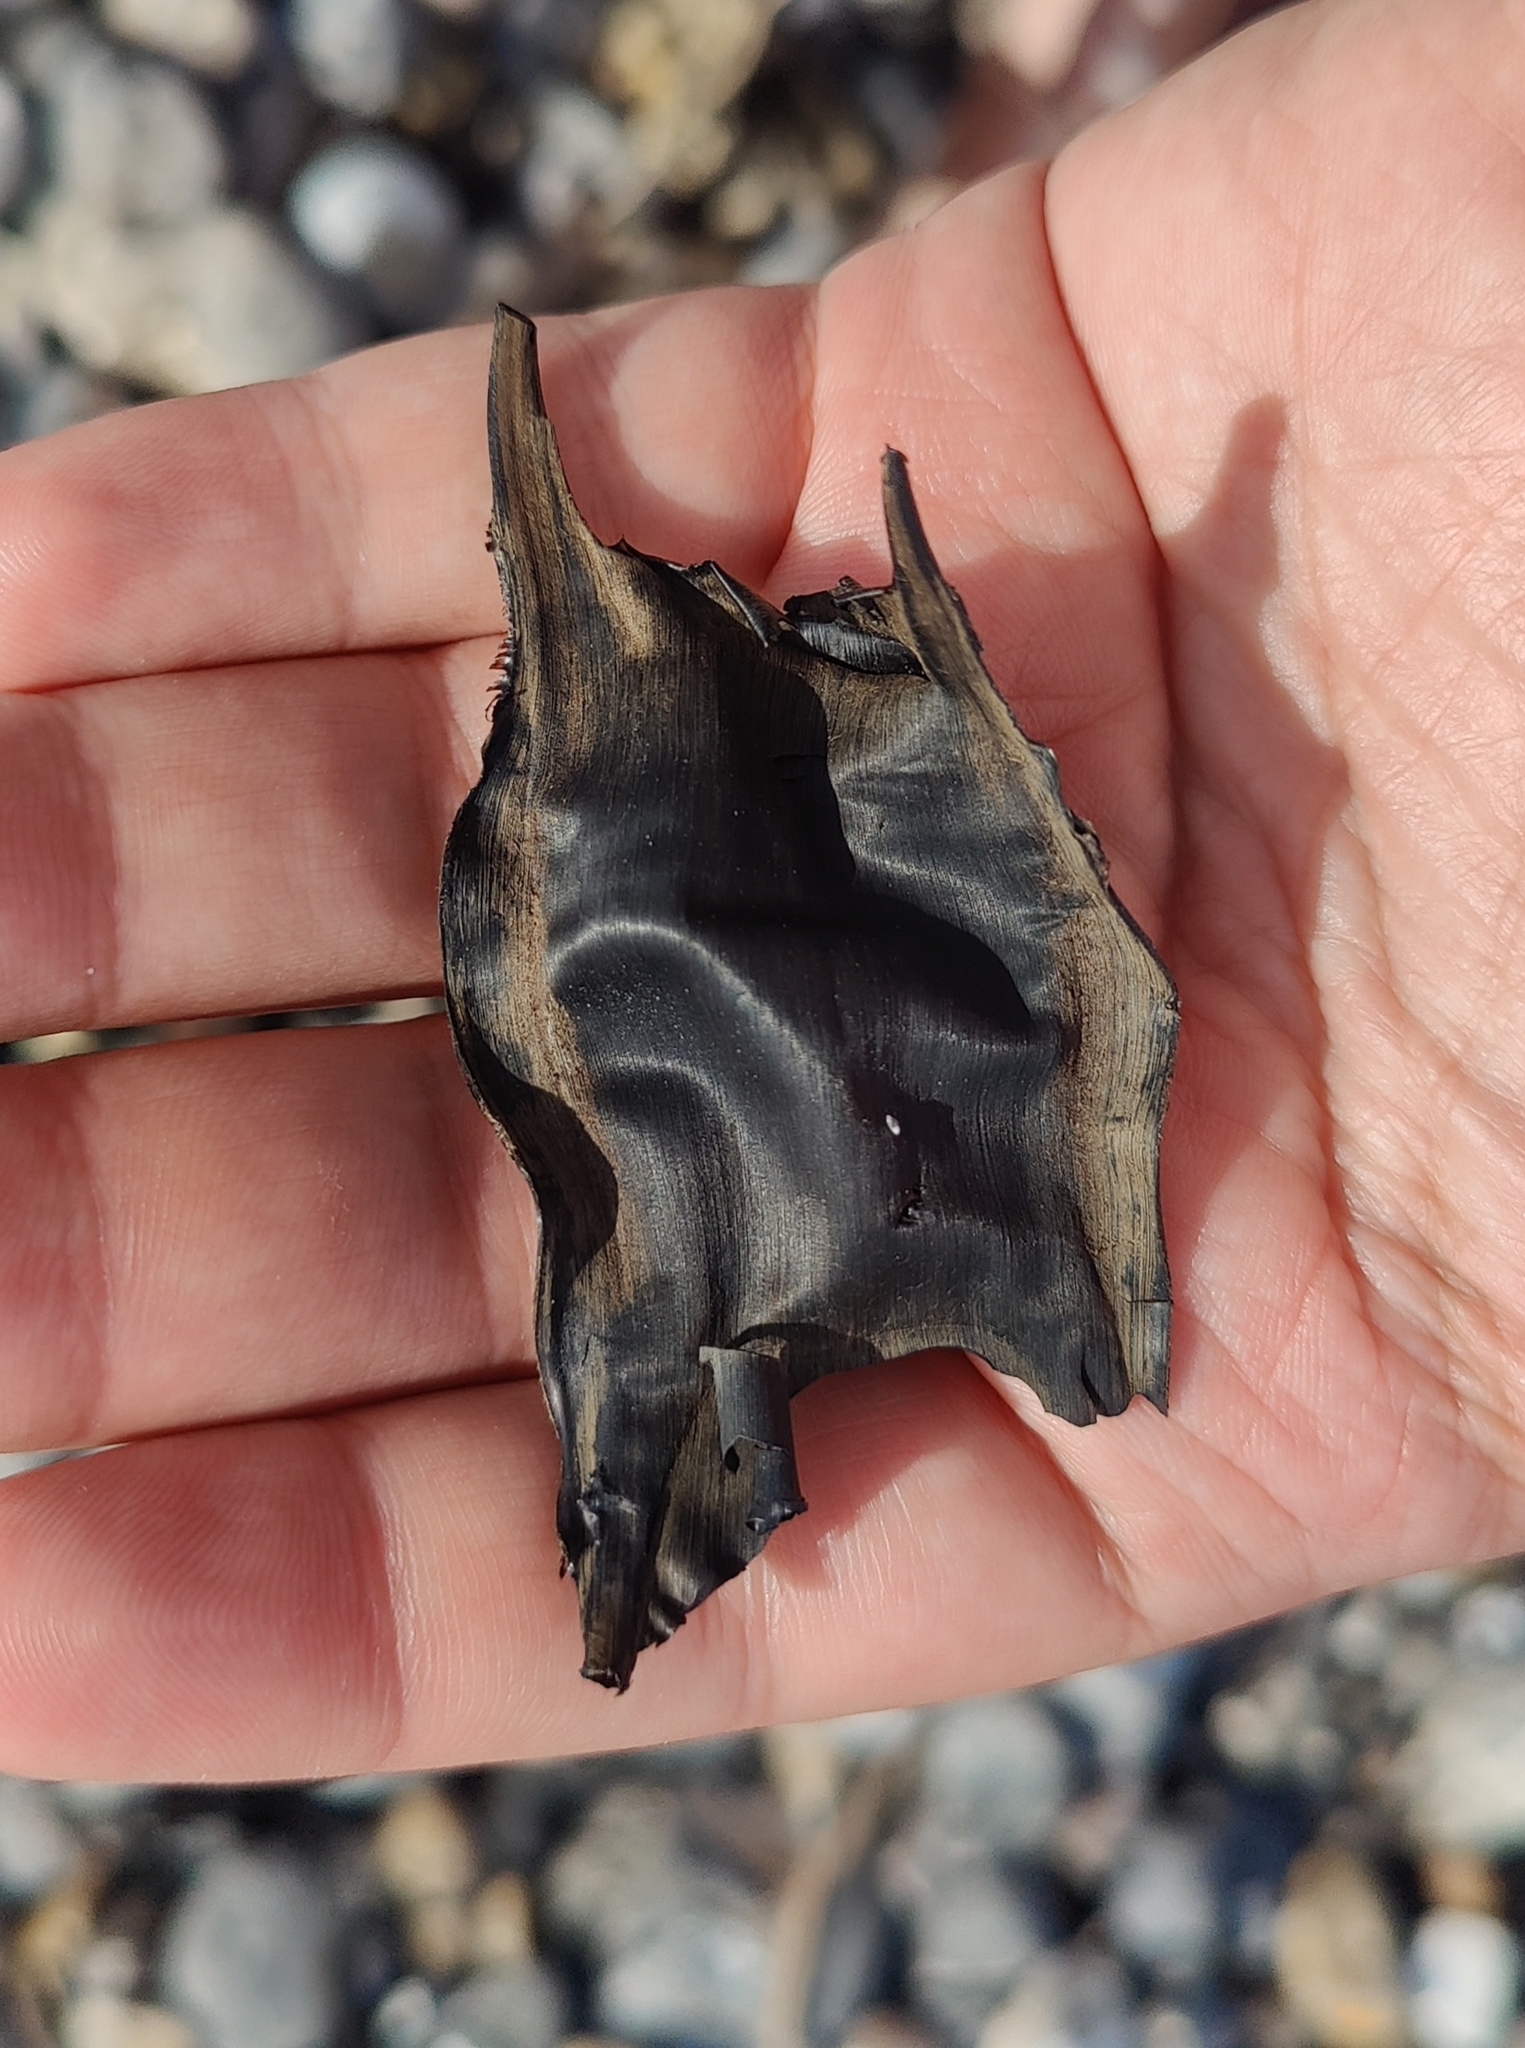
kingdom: Animalia
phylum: Chordata
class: Elasmobranchii
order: Rajiformes
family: Rajidae
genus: Raja
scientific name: Raja clavata
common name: Thornback ray
